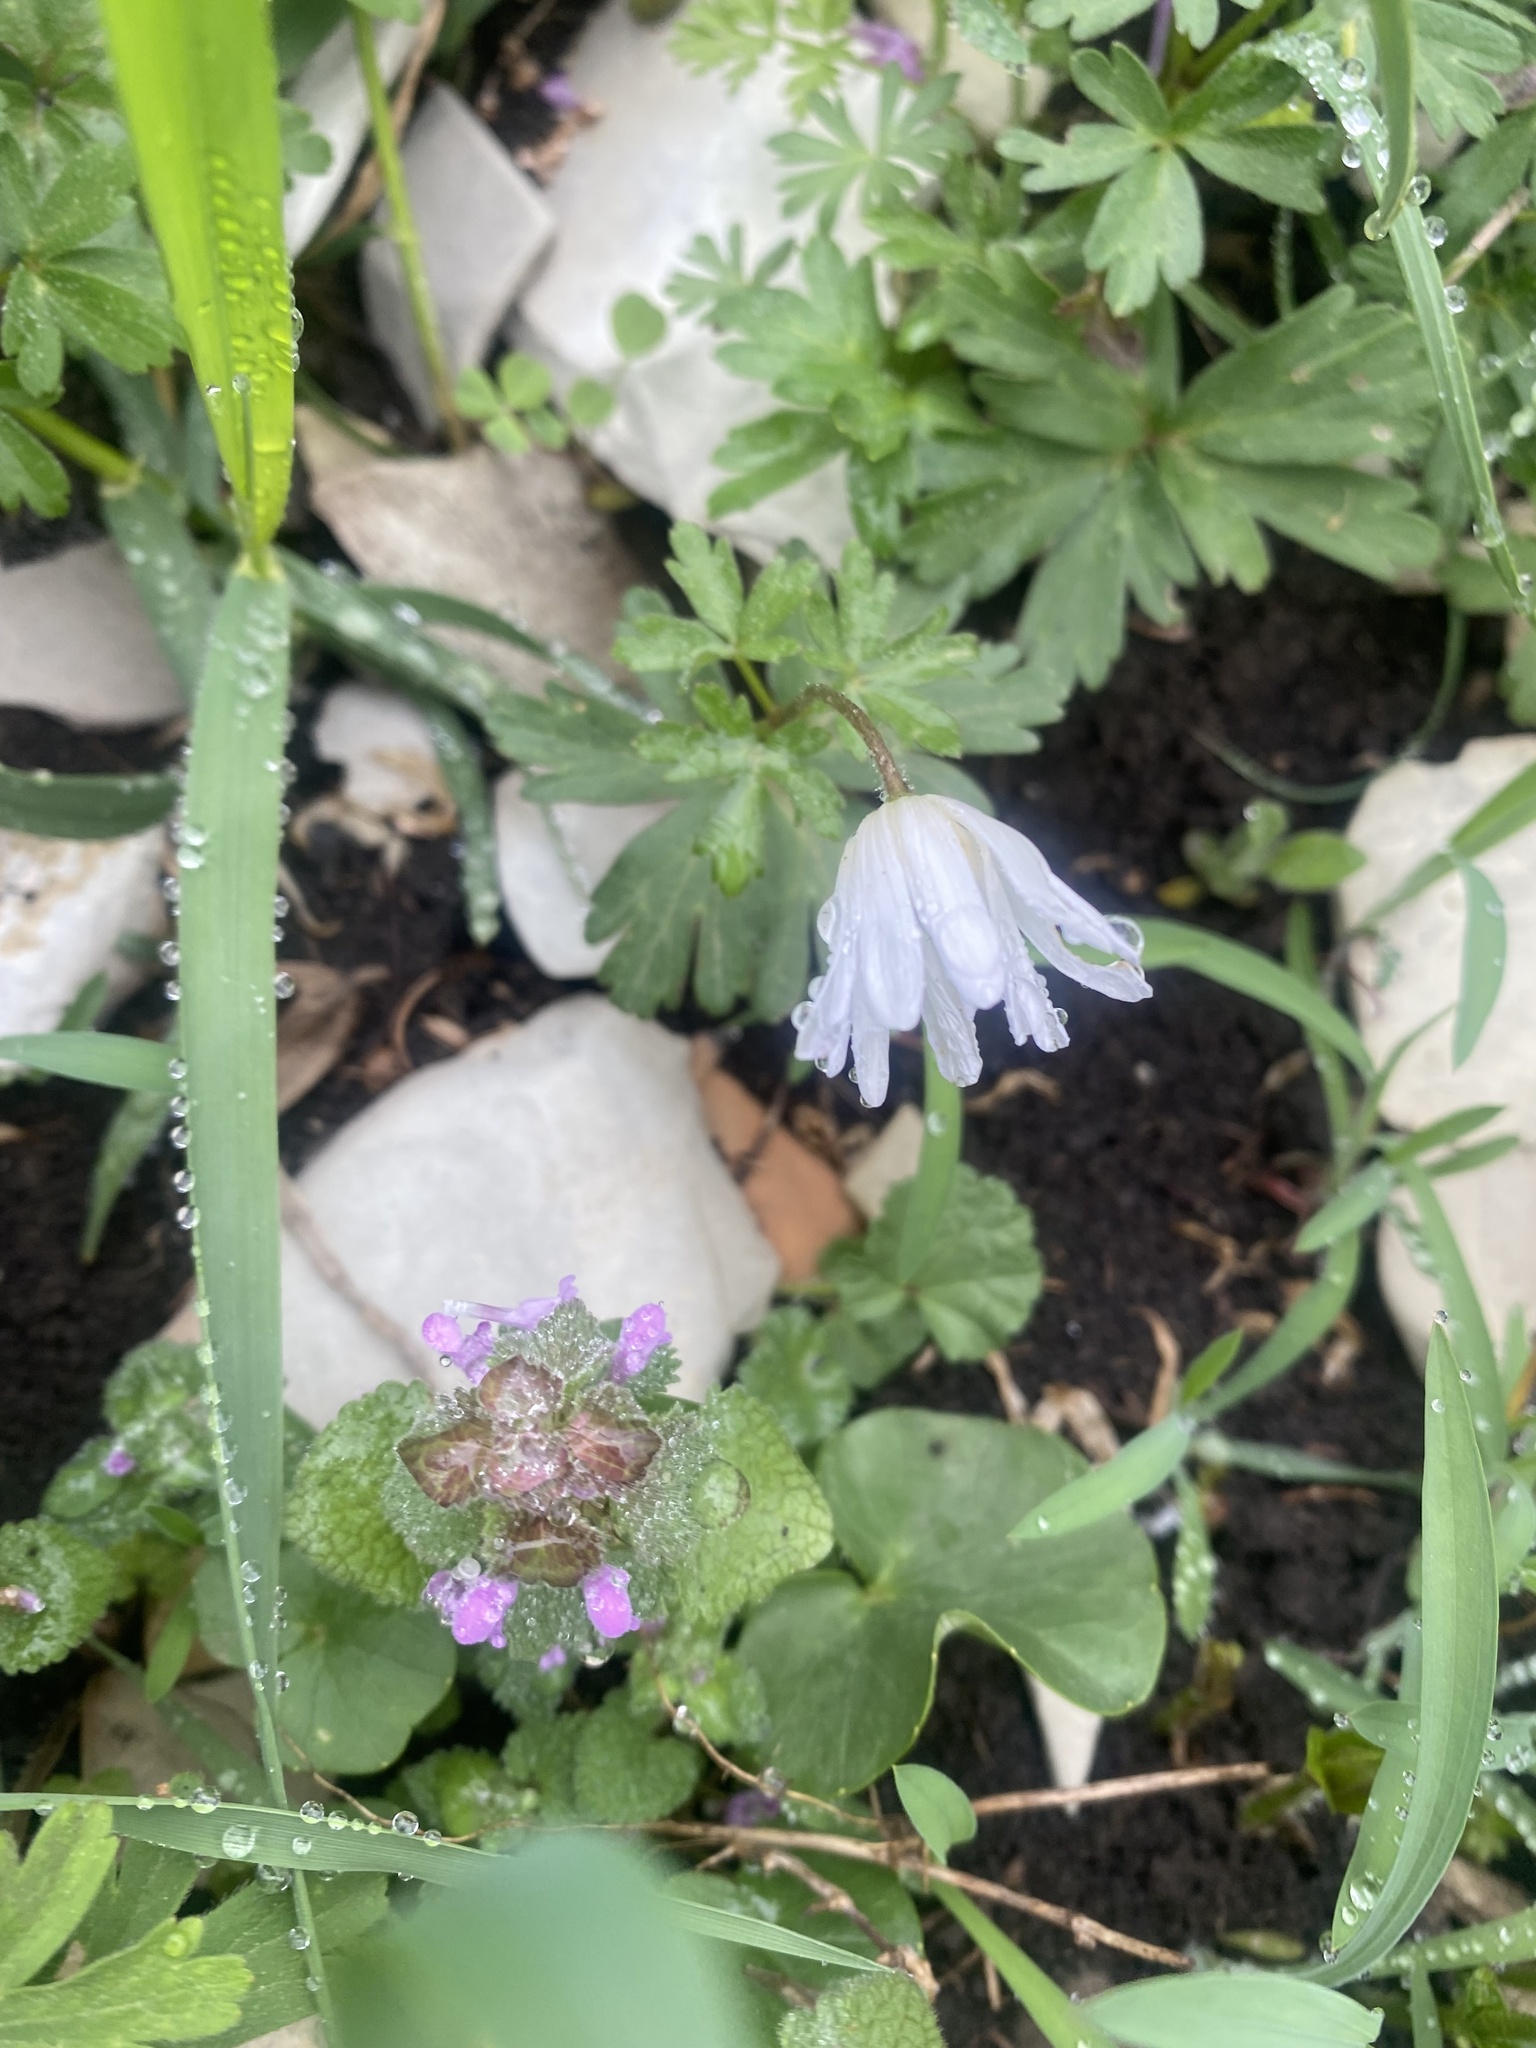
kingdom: Plantae
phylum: Tracheophyta
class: Magnoliopsida
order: Ranunculales
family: Ranunculaceae
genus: Anemone
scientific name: Anemone blanda
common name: Balkan anemone
